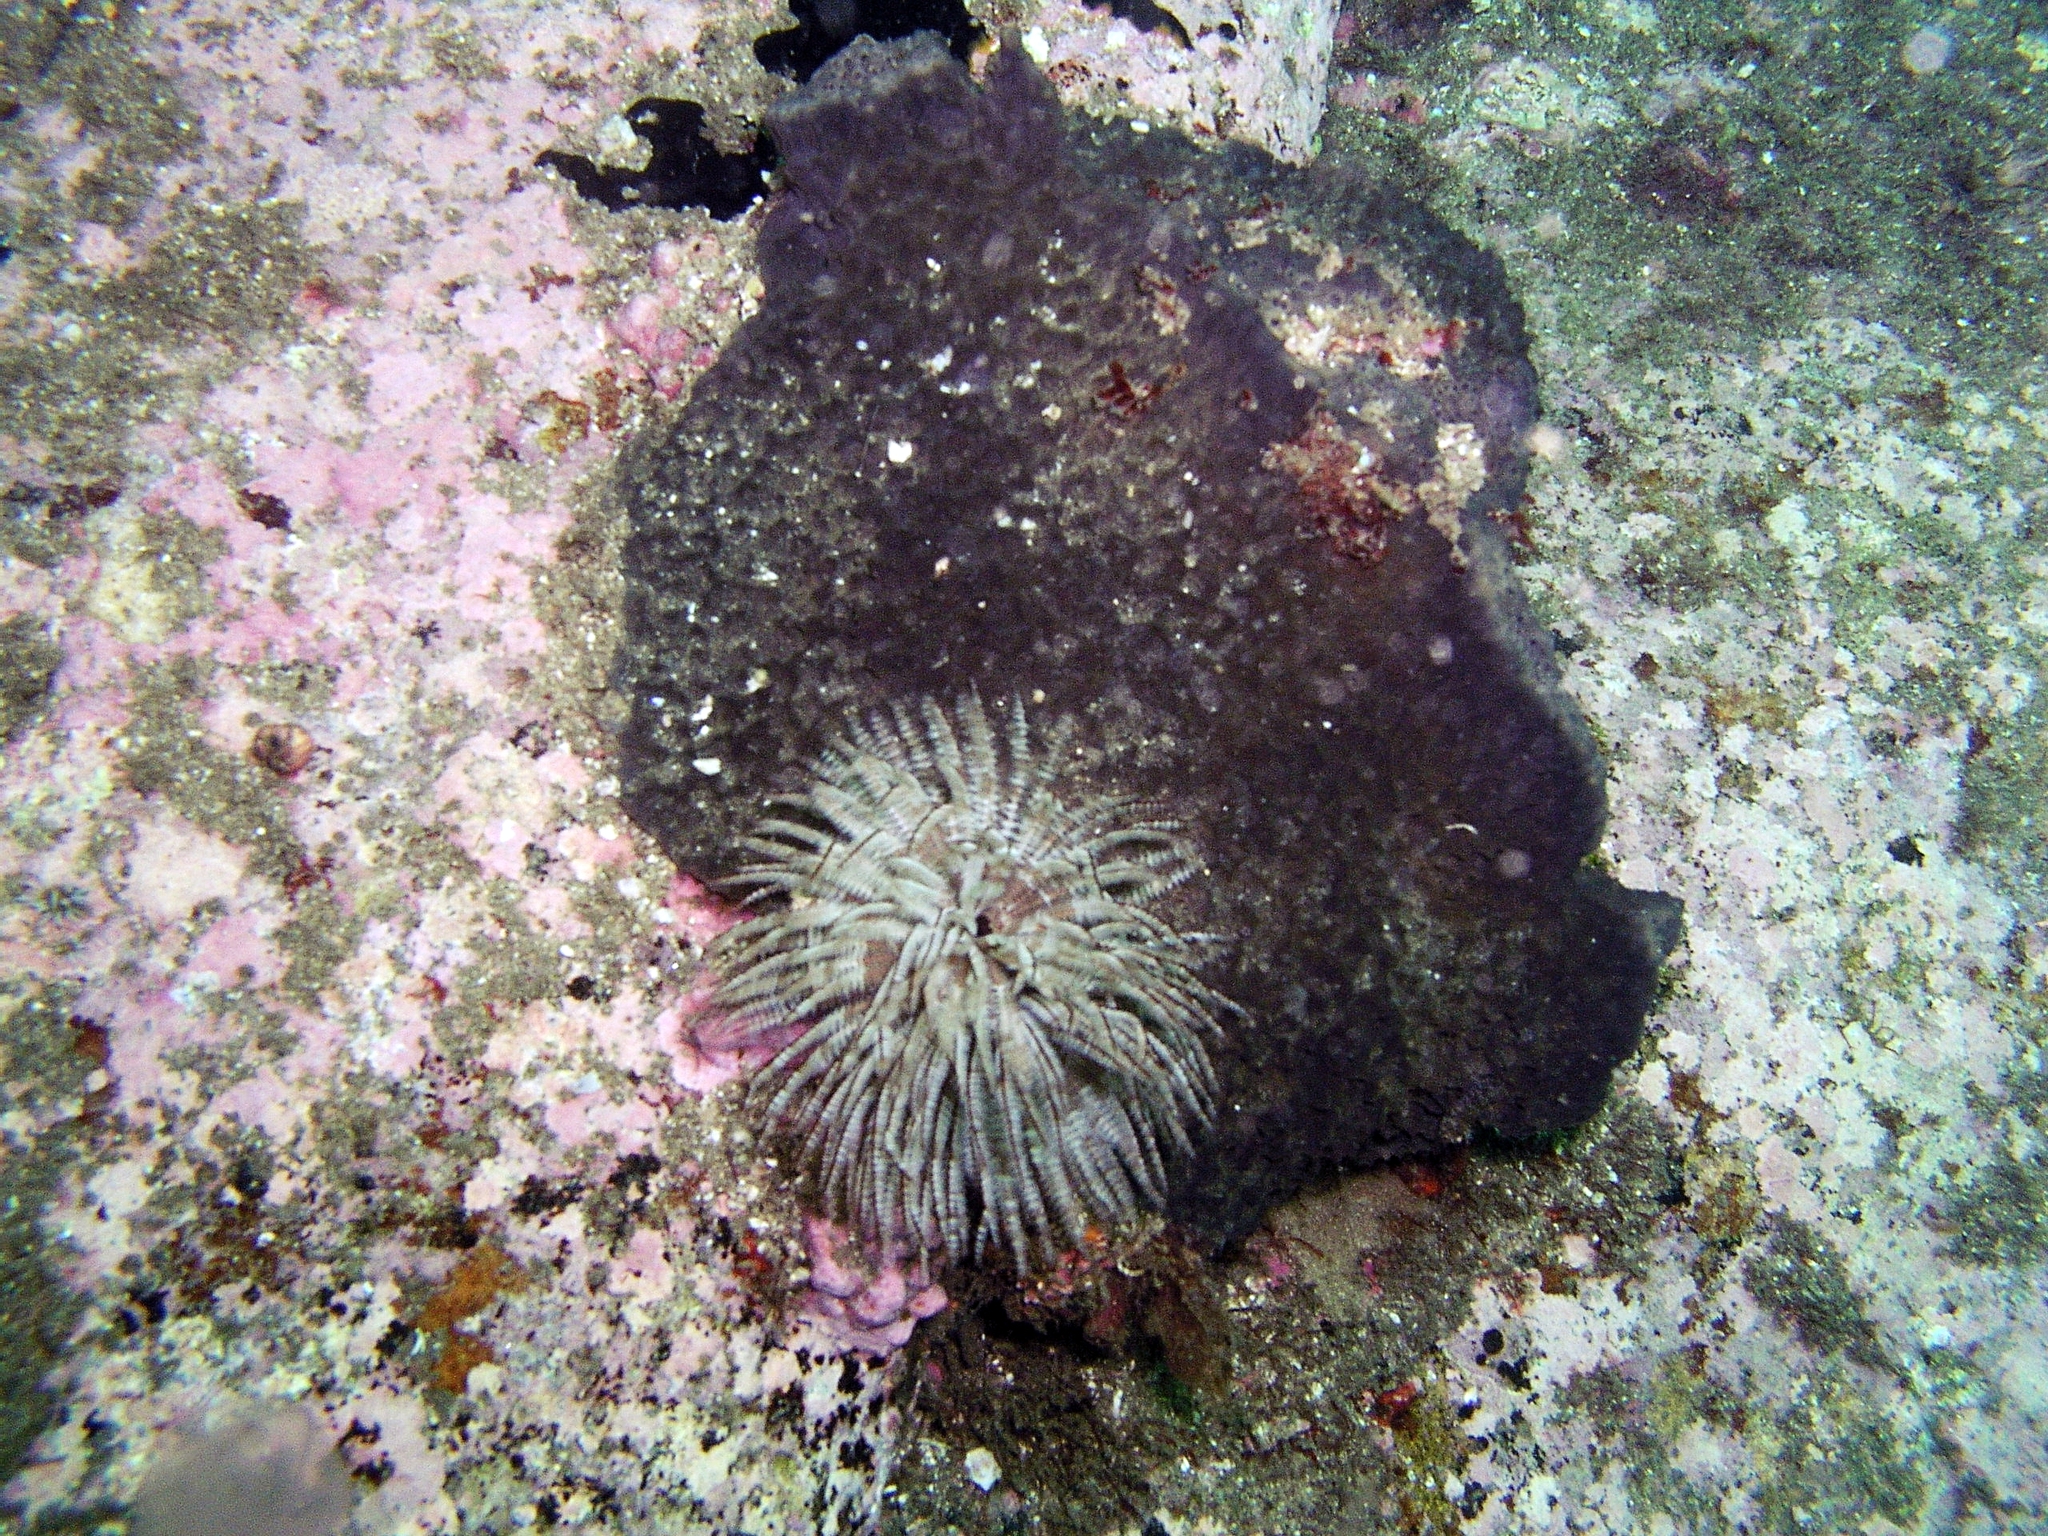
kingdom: Animalia
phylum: Annelida
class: Polychaeta
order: Sabellida
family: Sabellidae
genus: Sabellastarte
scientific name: Sabellastarte australiensis
